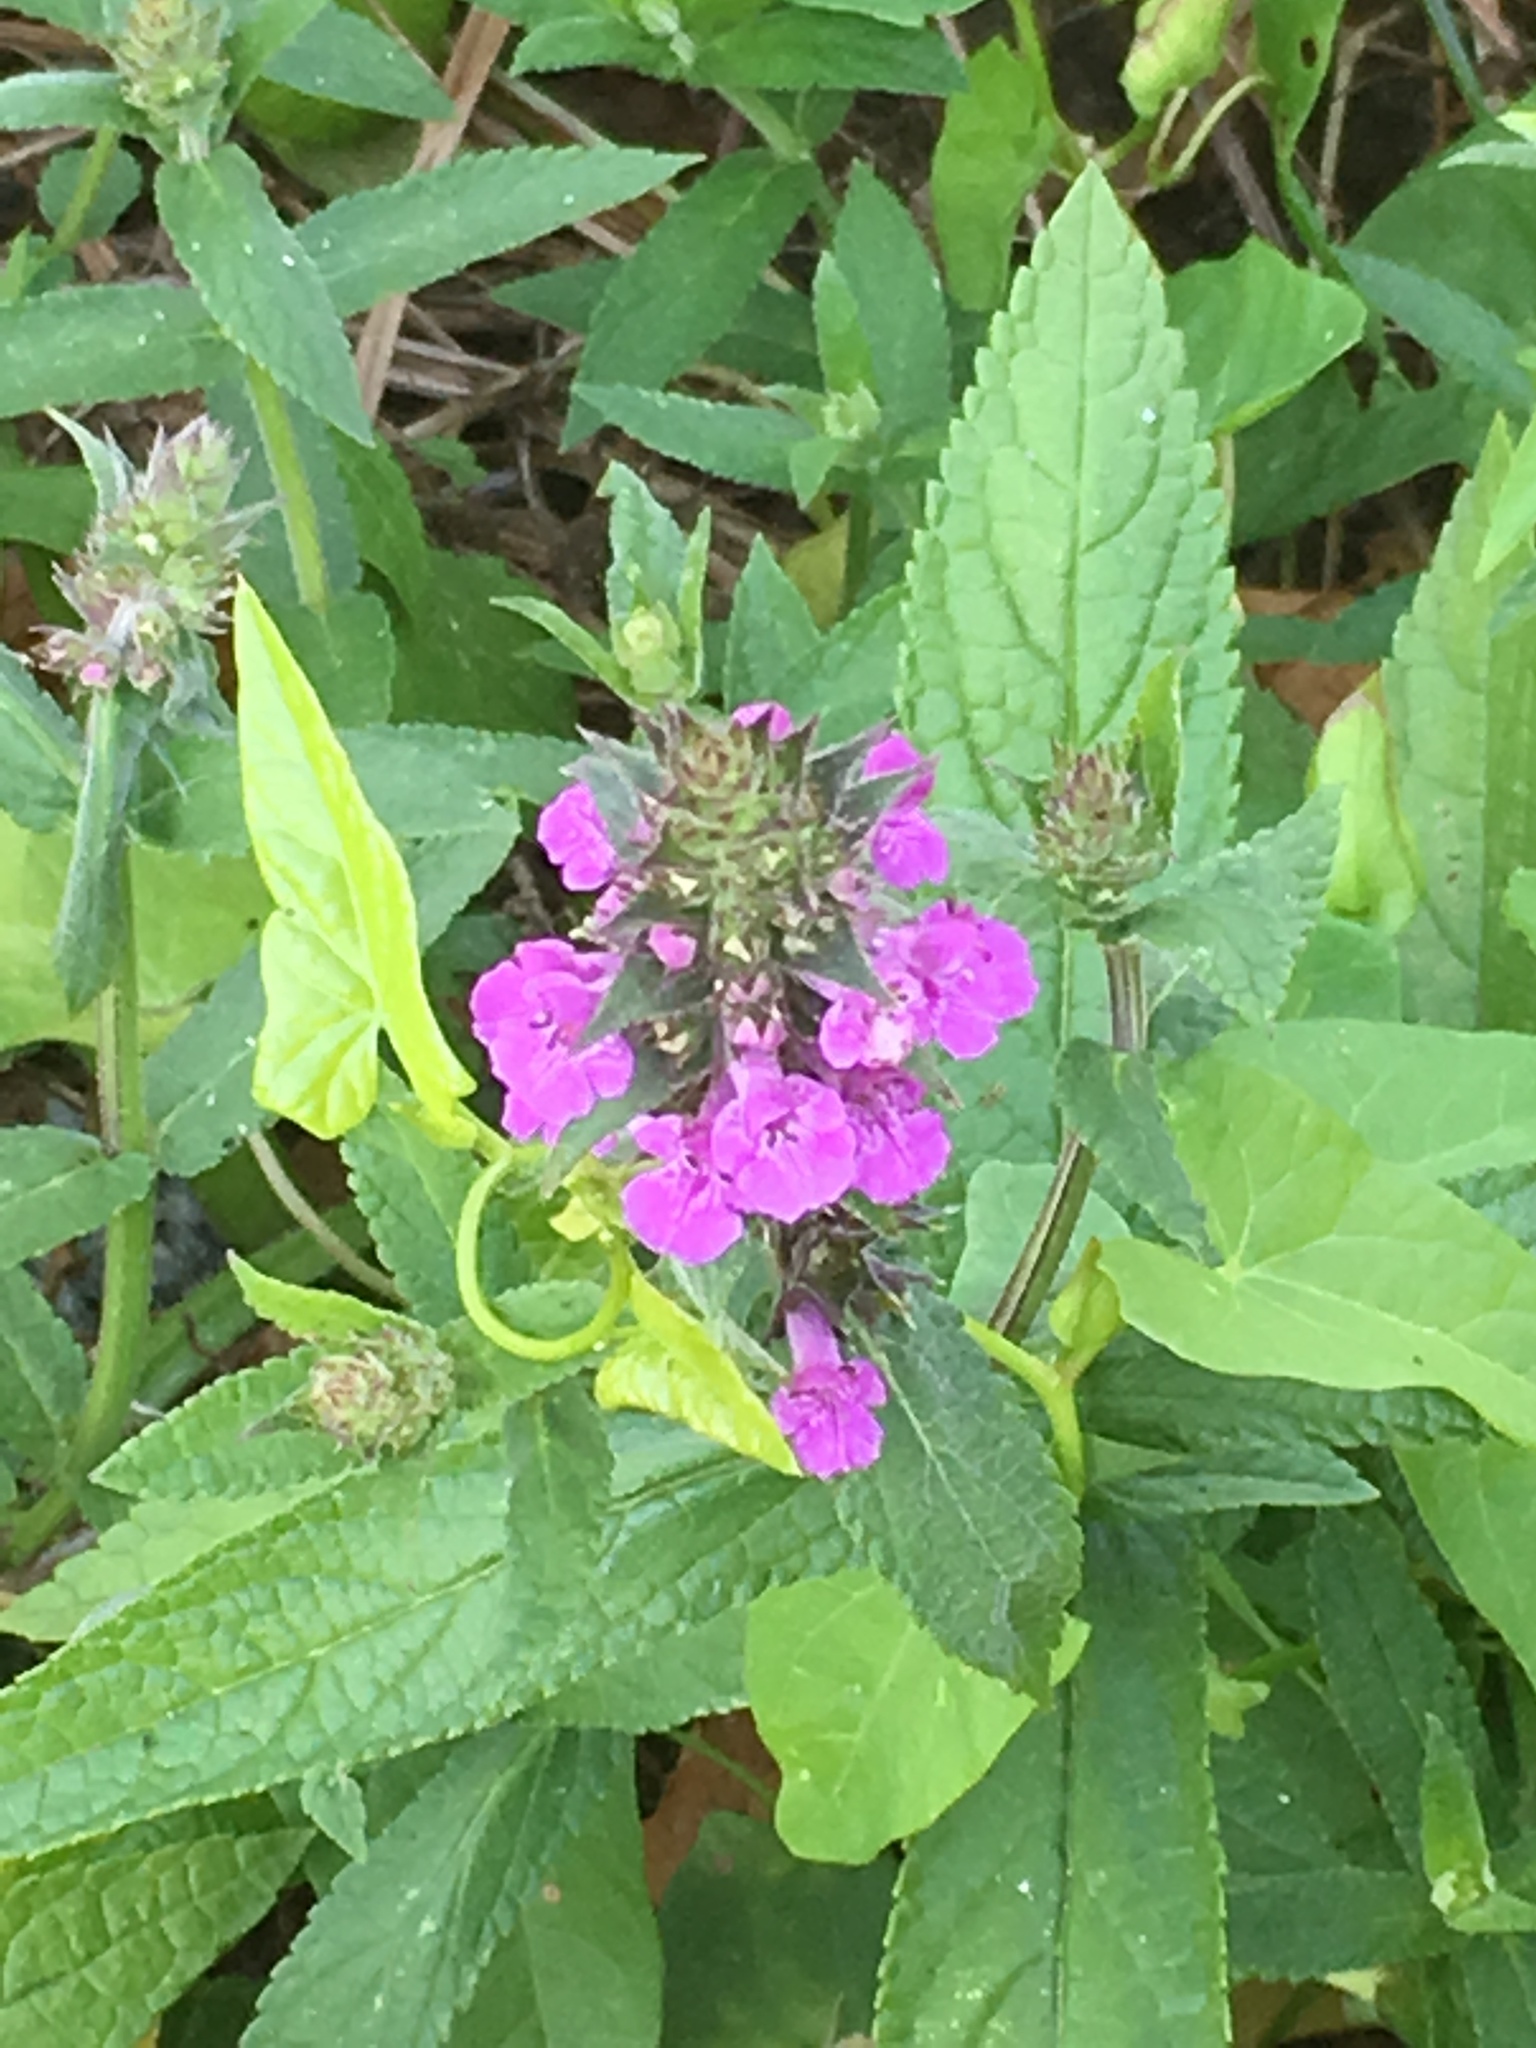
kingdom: Plantae
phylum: Tracheophyta
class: Magnoliopsida
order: Lamiales
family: Lamiaceae
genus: Stachys
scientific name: Stachys palustris
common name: Marsh woundwort
